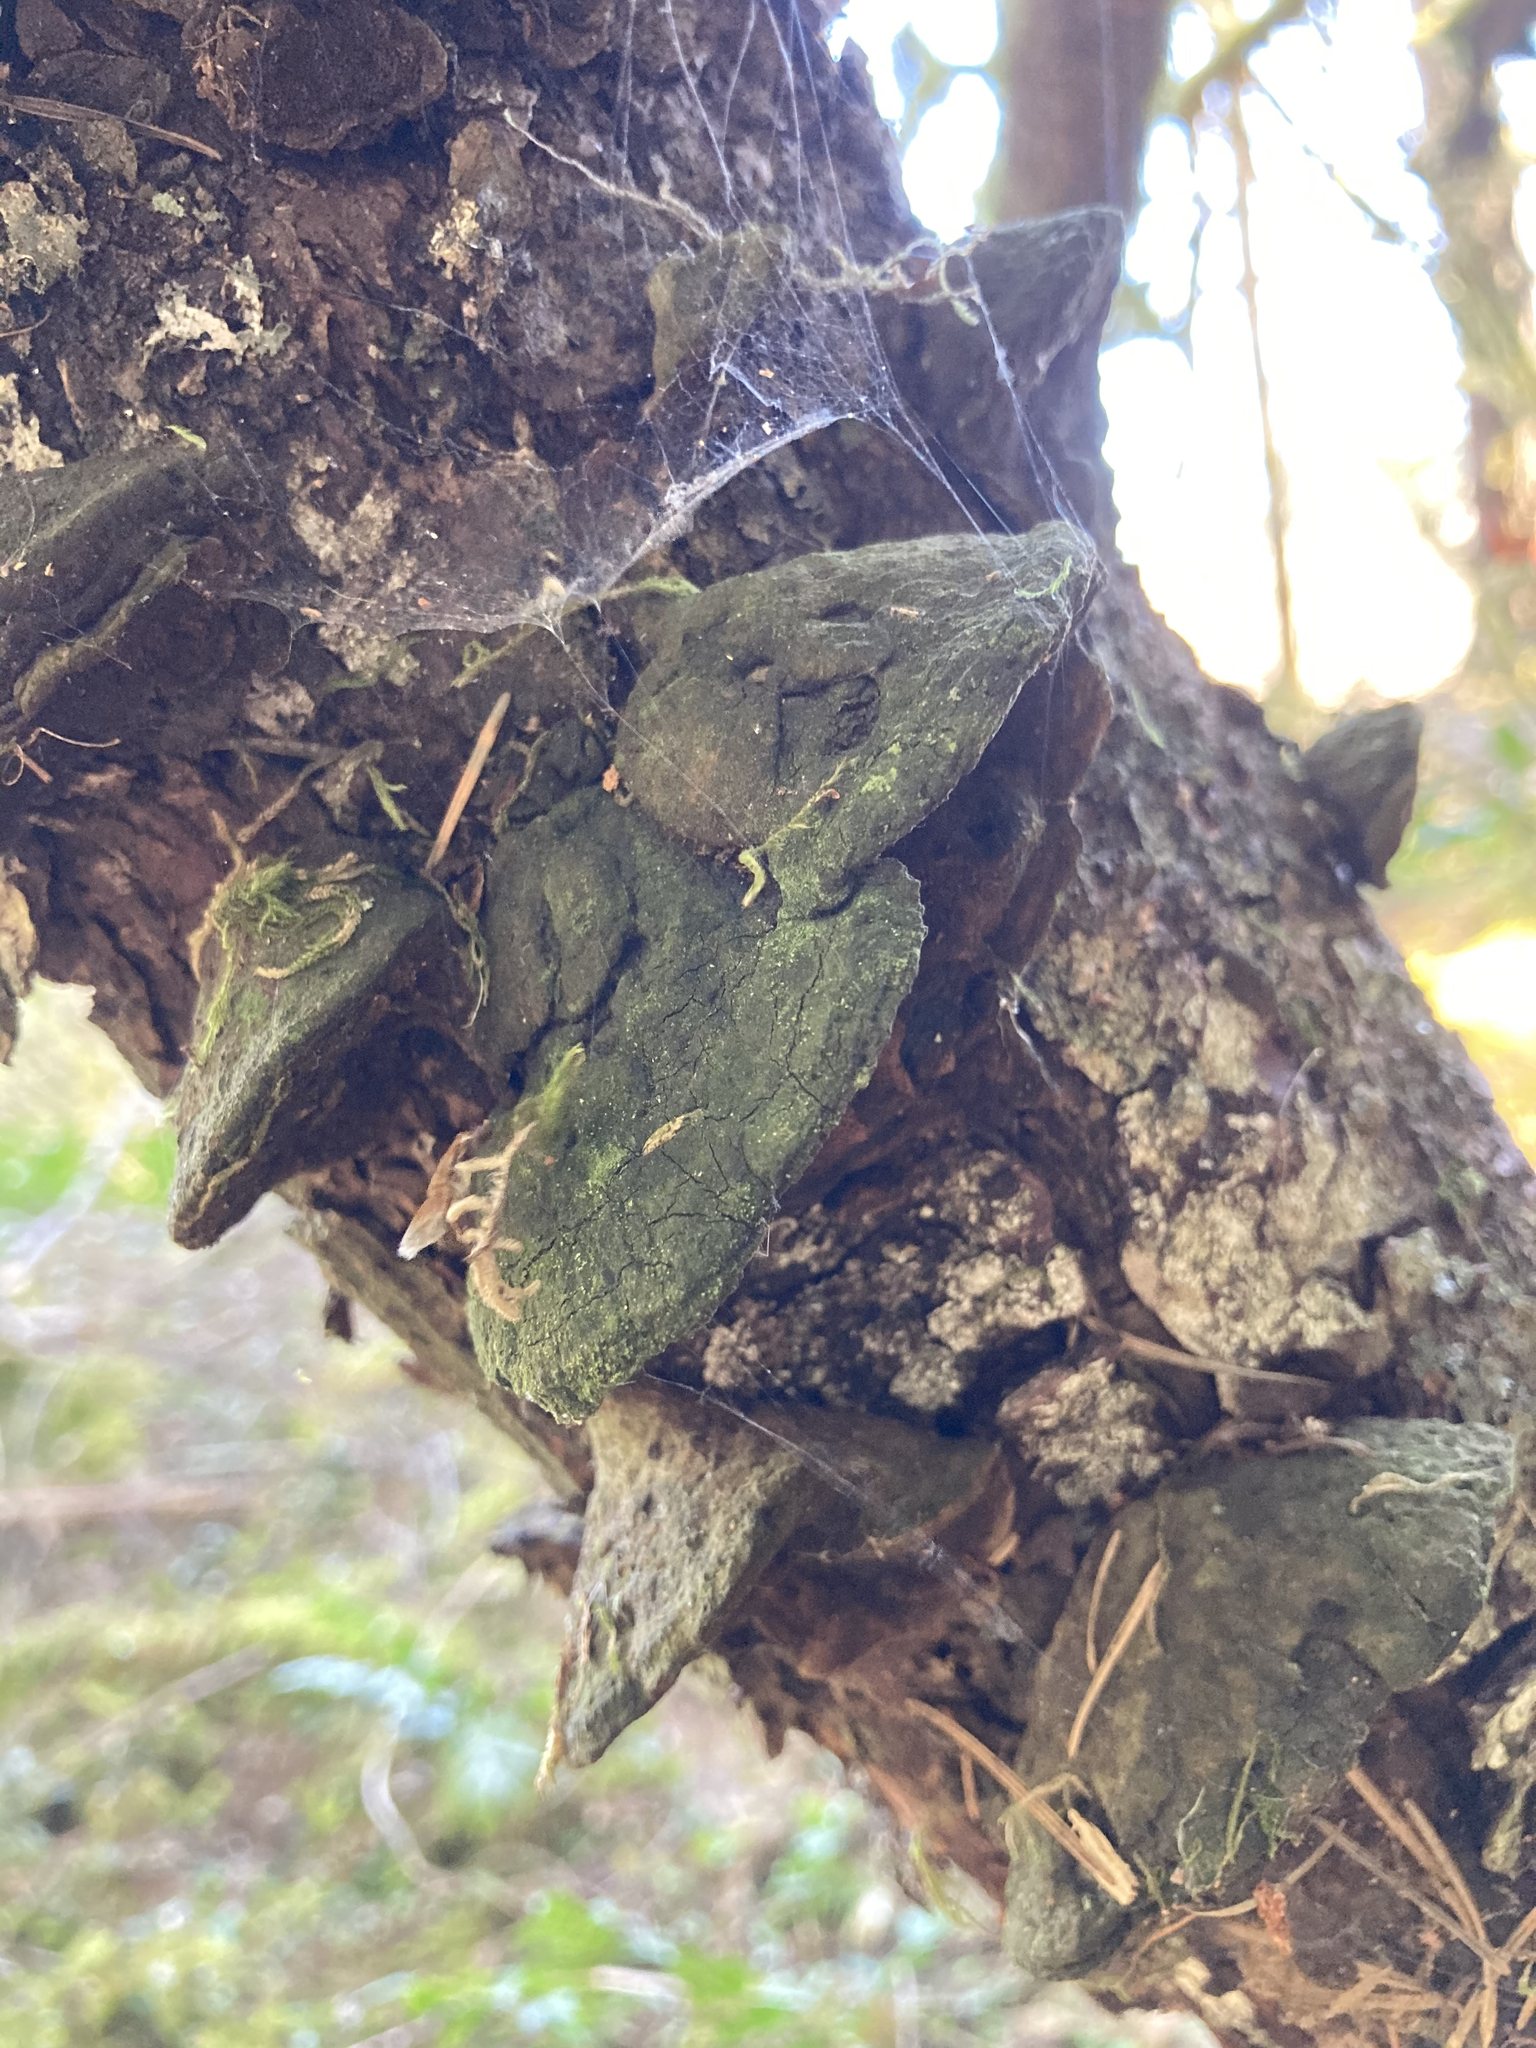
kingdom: Fungi
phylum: Basidiomycota
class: Agaricomycetes
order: Hymenochaetales
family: Hymenochaetaceae
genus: Porodaedalea
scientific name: Porodaedalea pini
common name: Pine bracket
